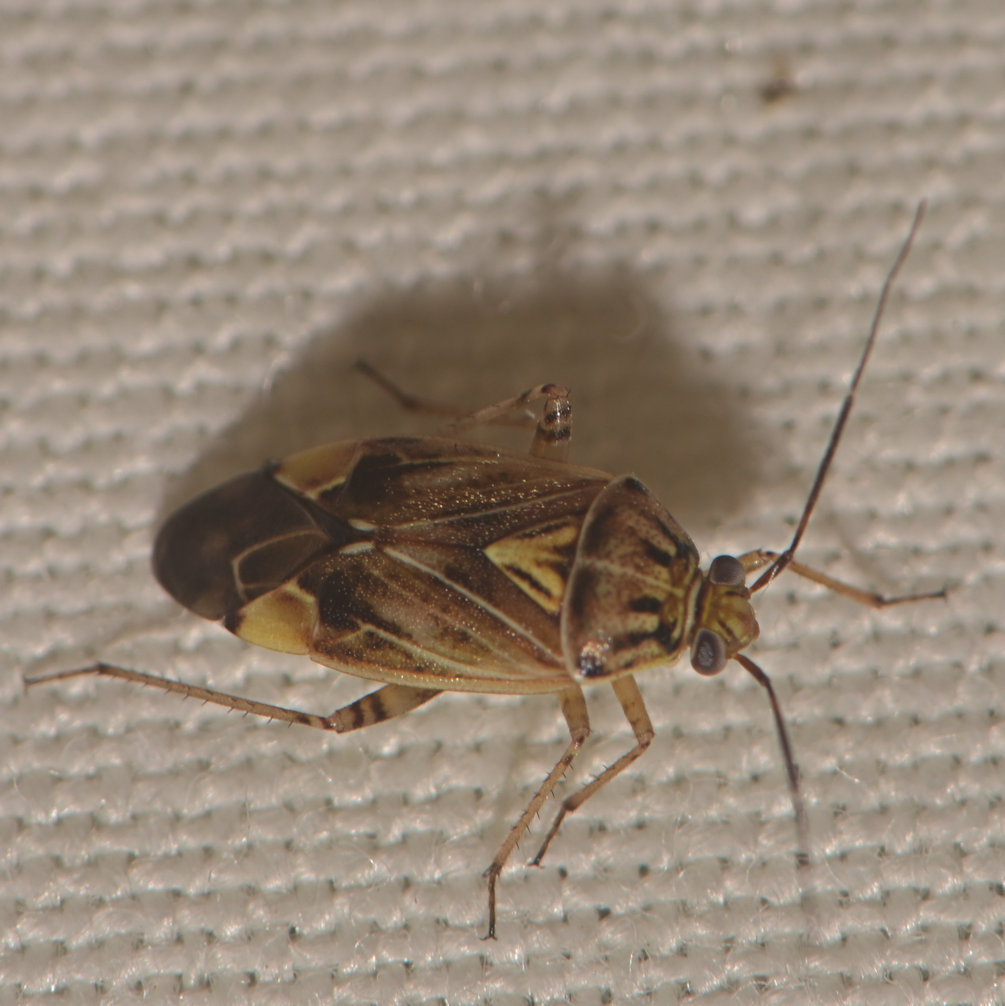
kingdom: Animalia
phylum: Arthropoda
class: Insecta
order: Hemiptera
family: Miridae
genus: Lygus
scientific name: Lygus lineolaris
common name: North american tarnished plant bug
